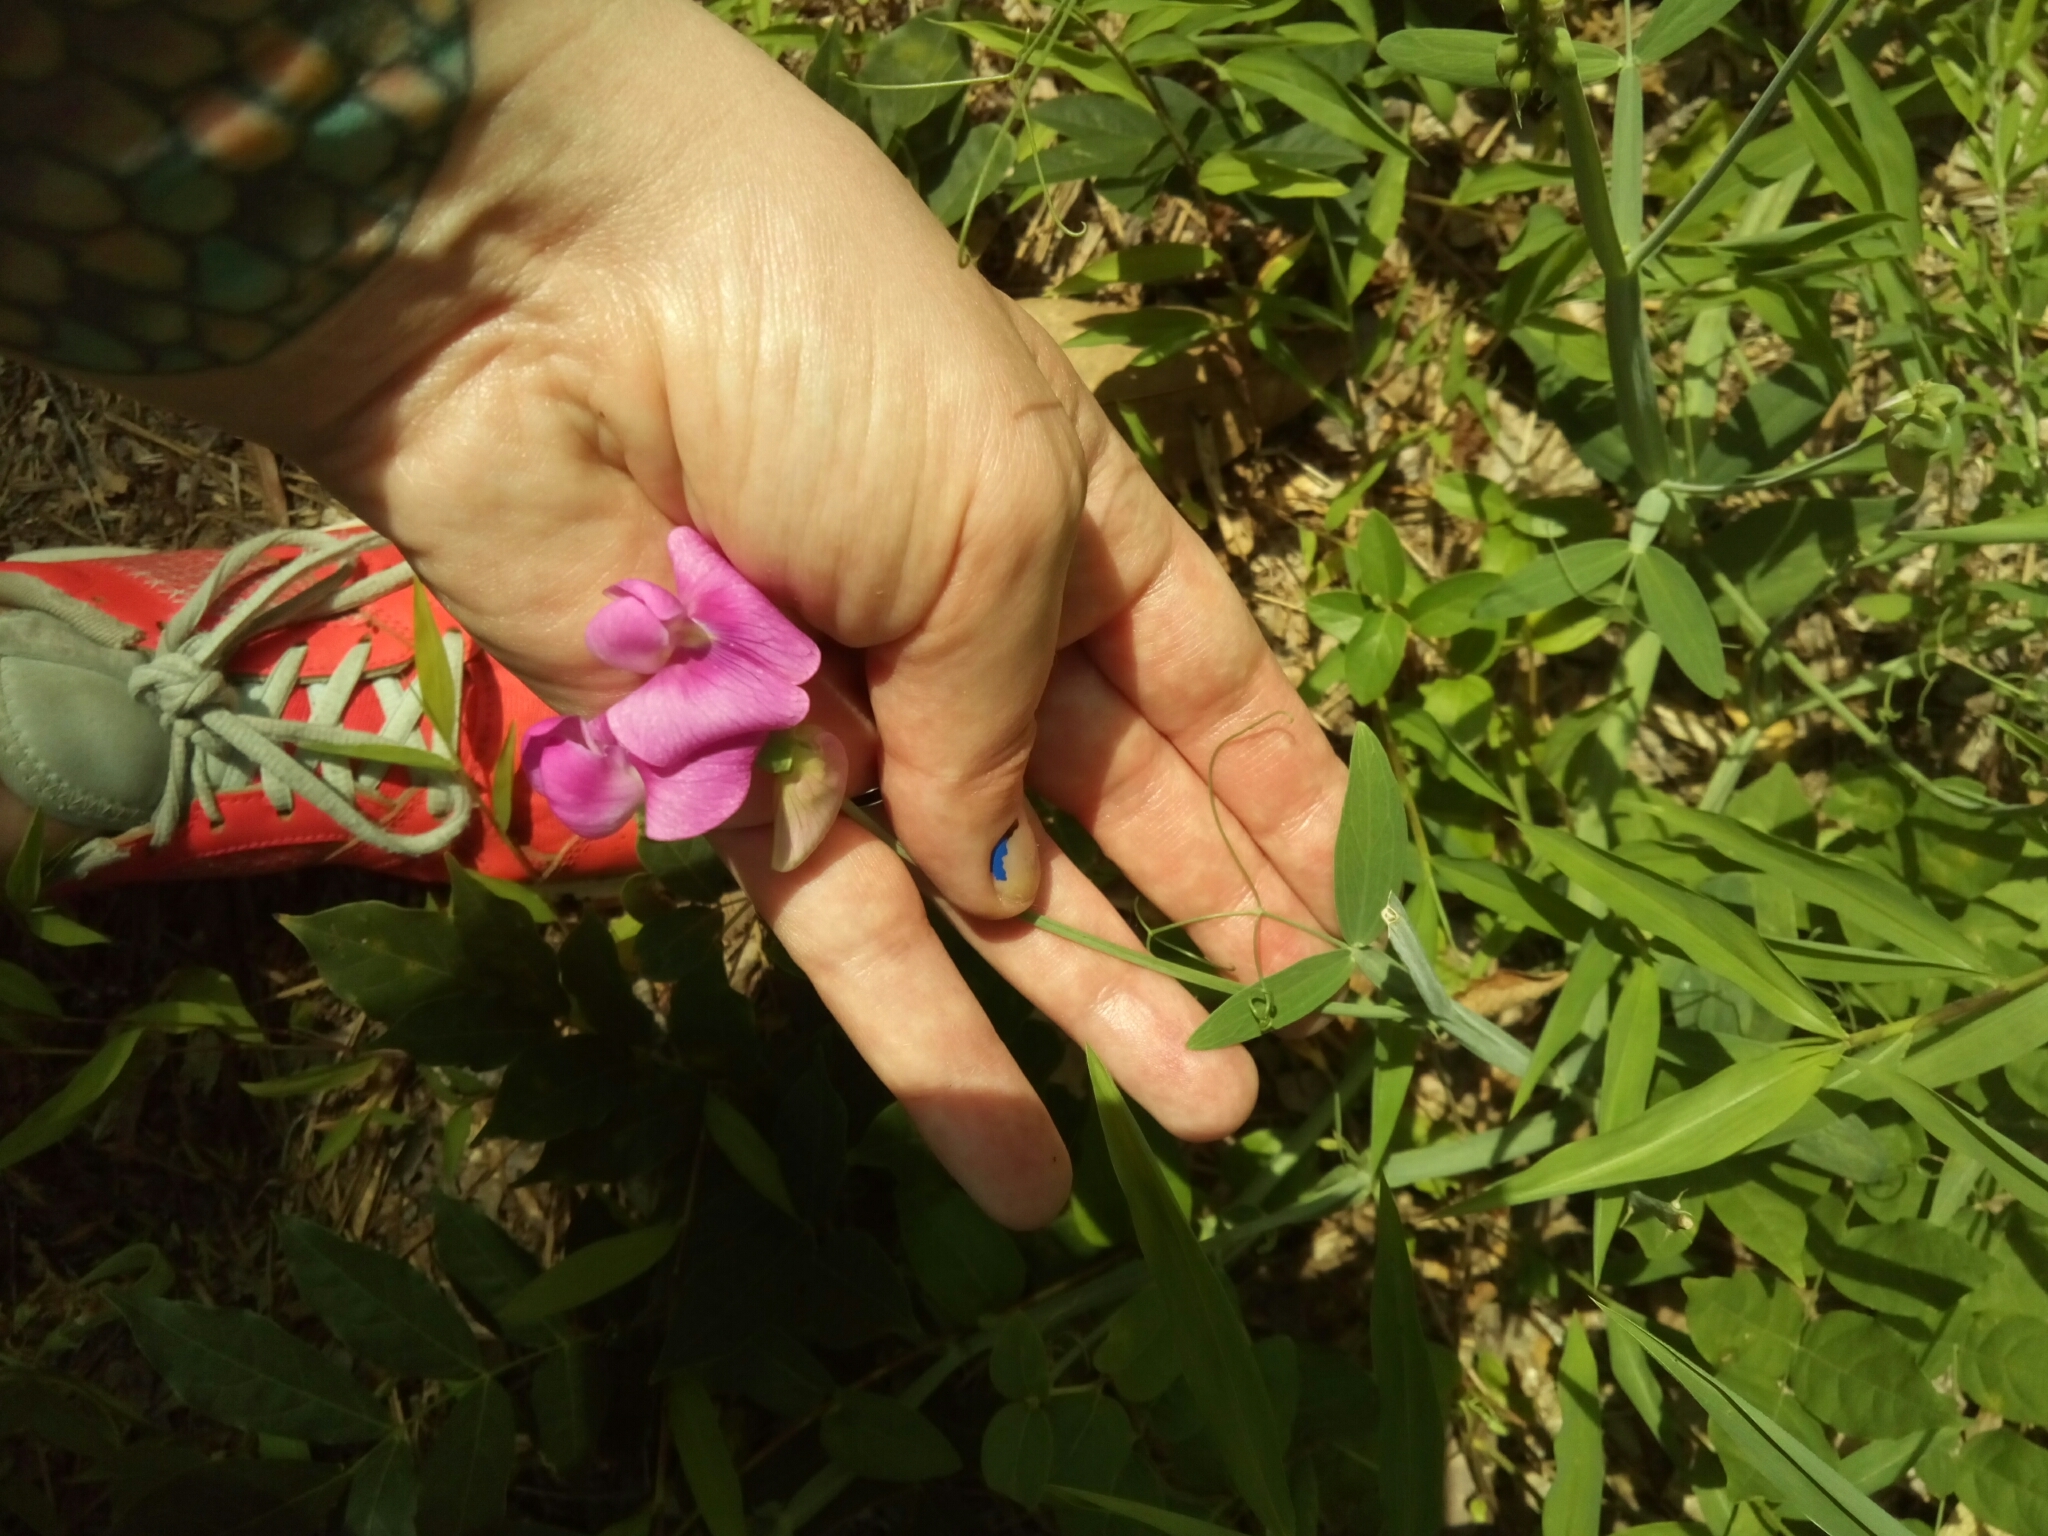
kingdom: Plantae
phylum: Tracheophyta
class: Magnoliopsida
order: Fabales
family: Fabaceae
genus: Lathyrus
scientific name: Lathyrus latifolius
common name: Perennial pea
